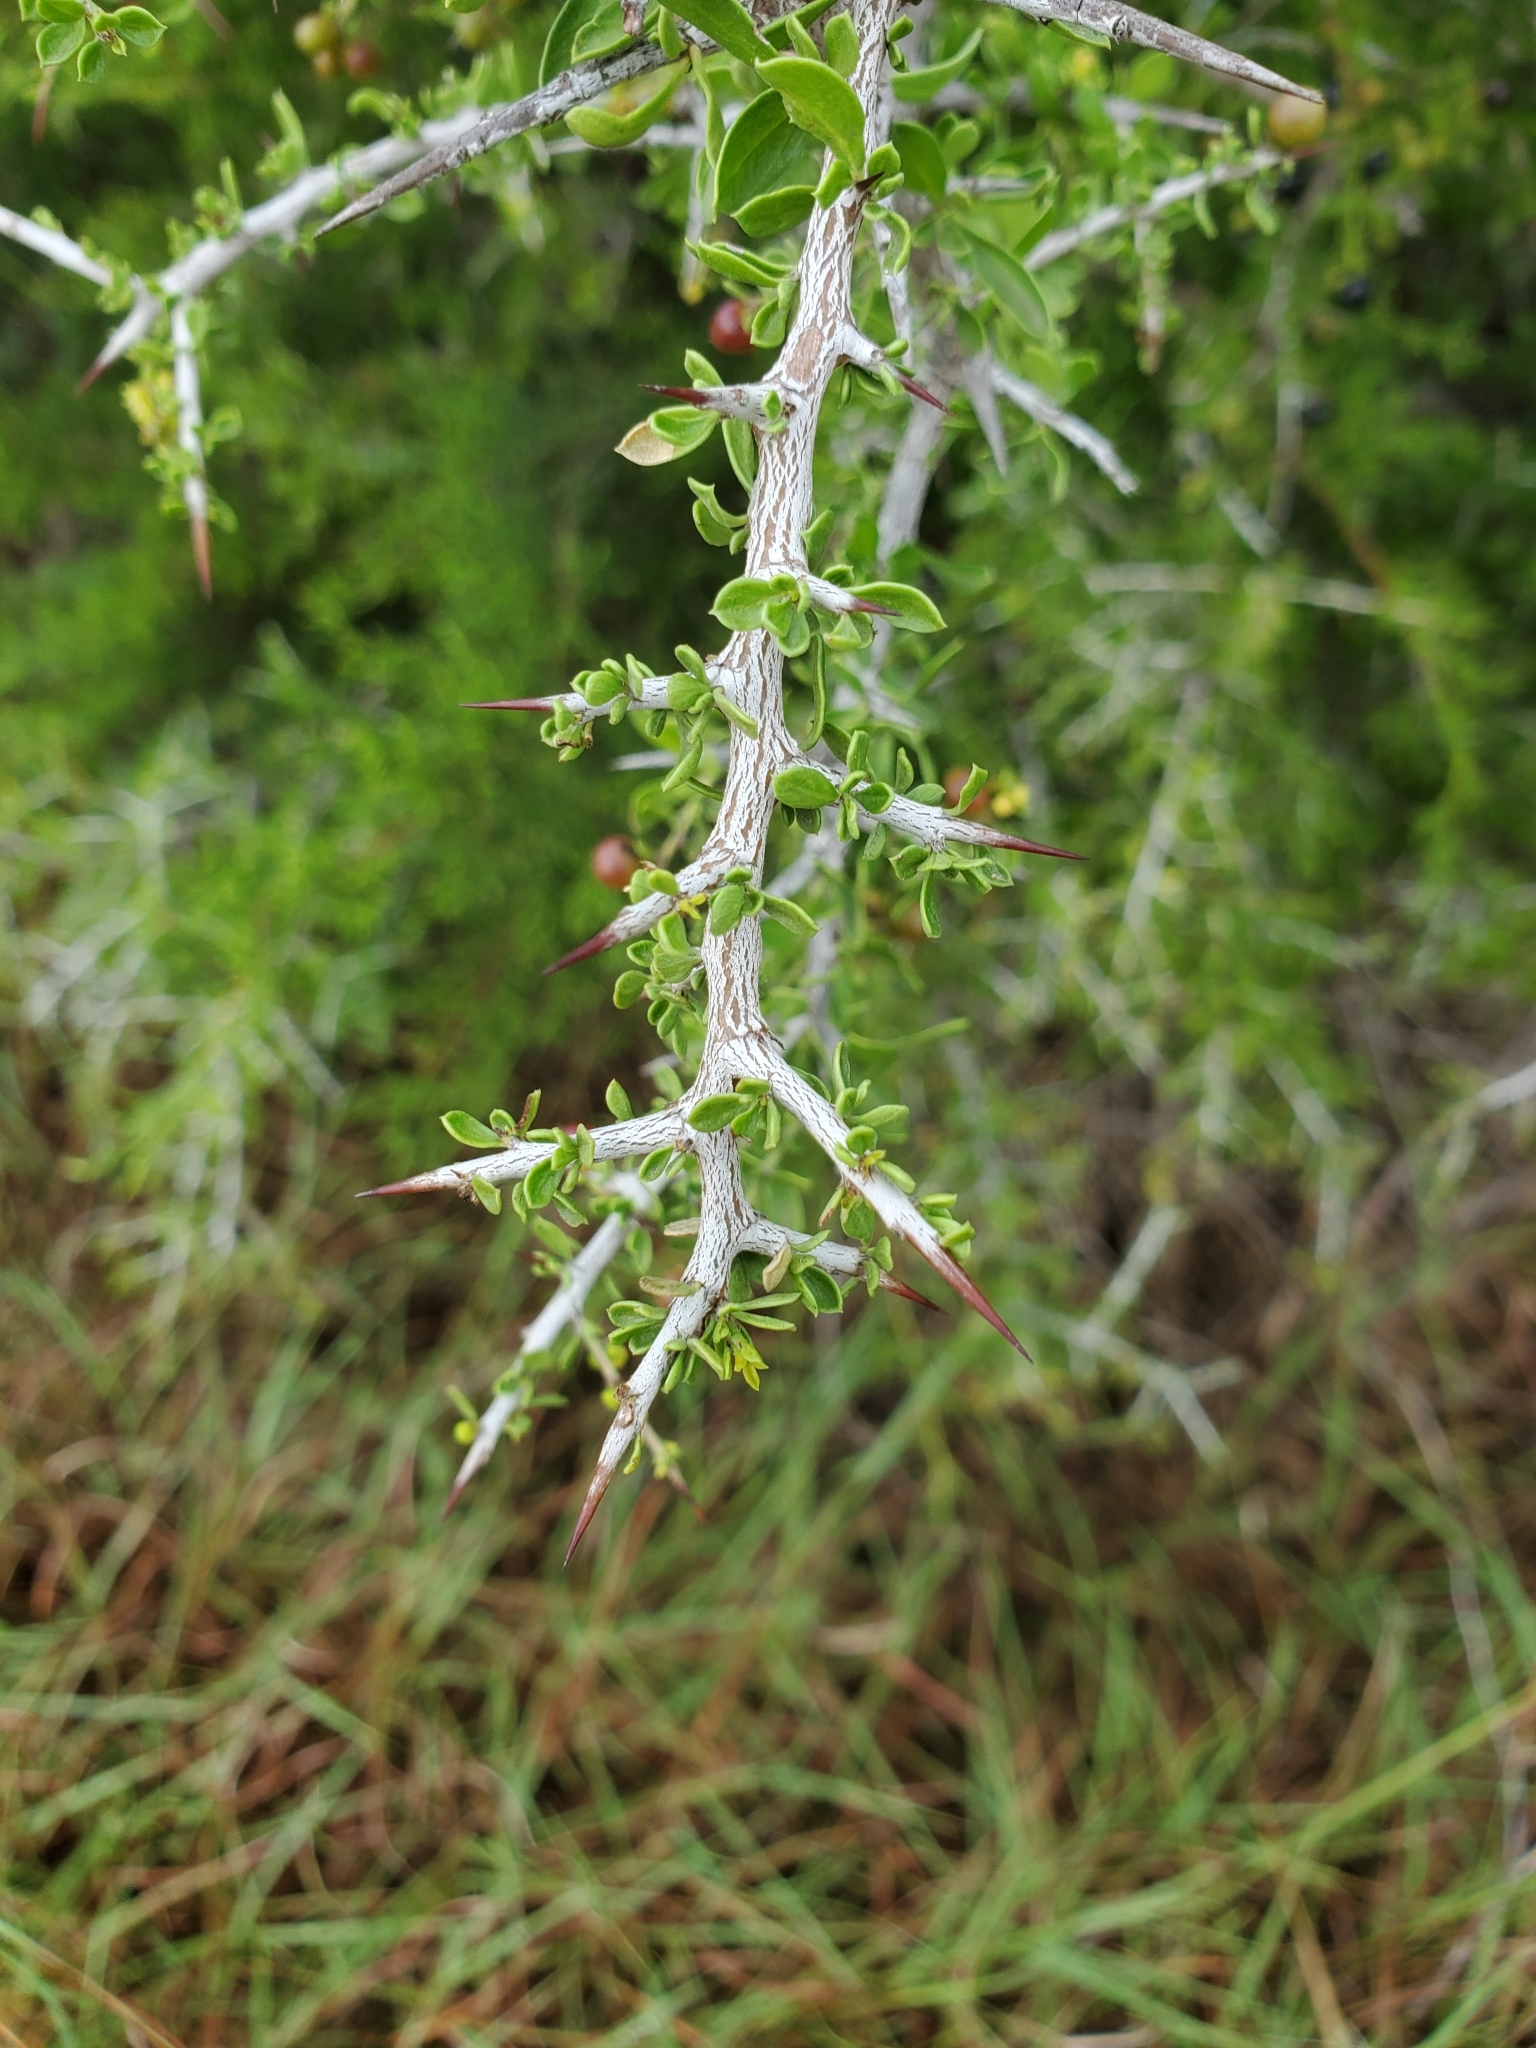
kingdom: Plantae
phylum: Tracheophyta
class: Magnoliopsida
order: Rosales
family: Rhamnaceae
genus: Condalia
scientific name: Condalia viridis
